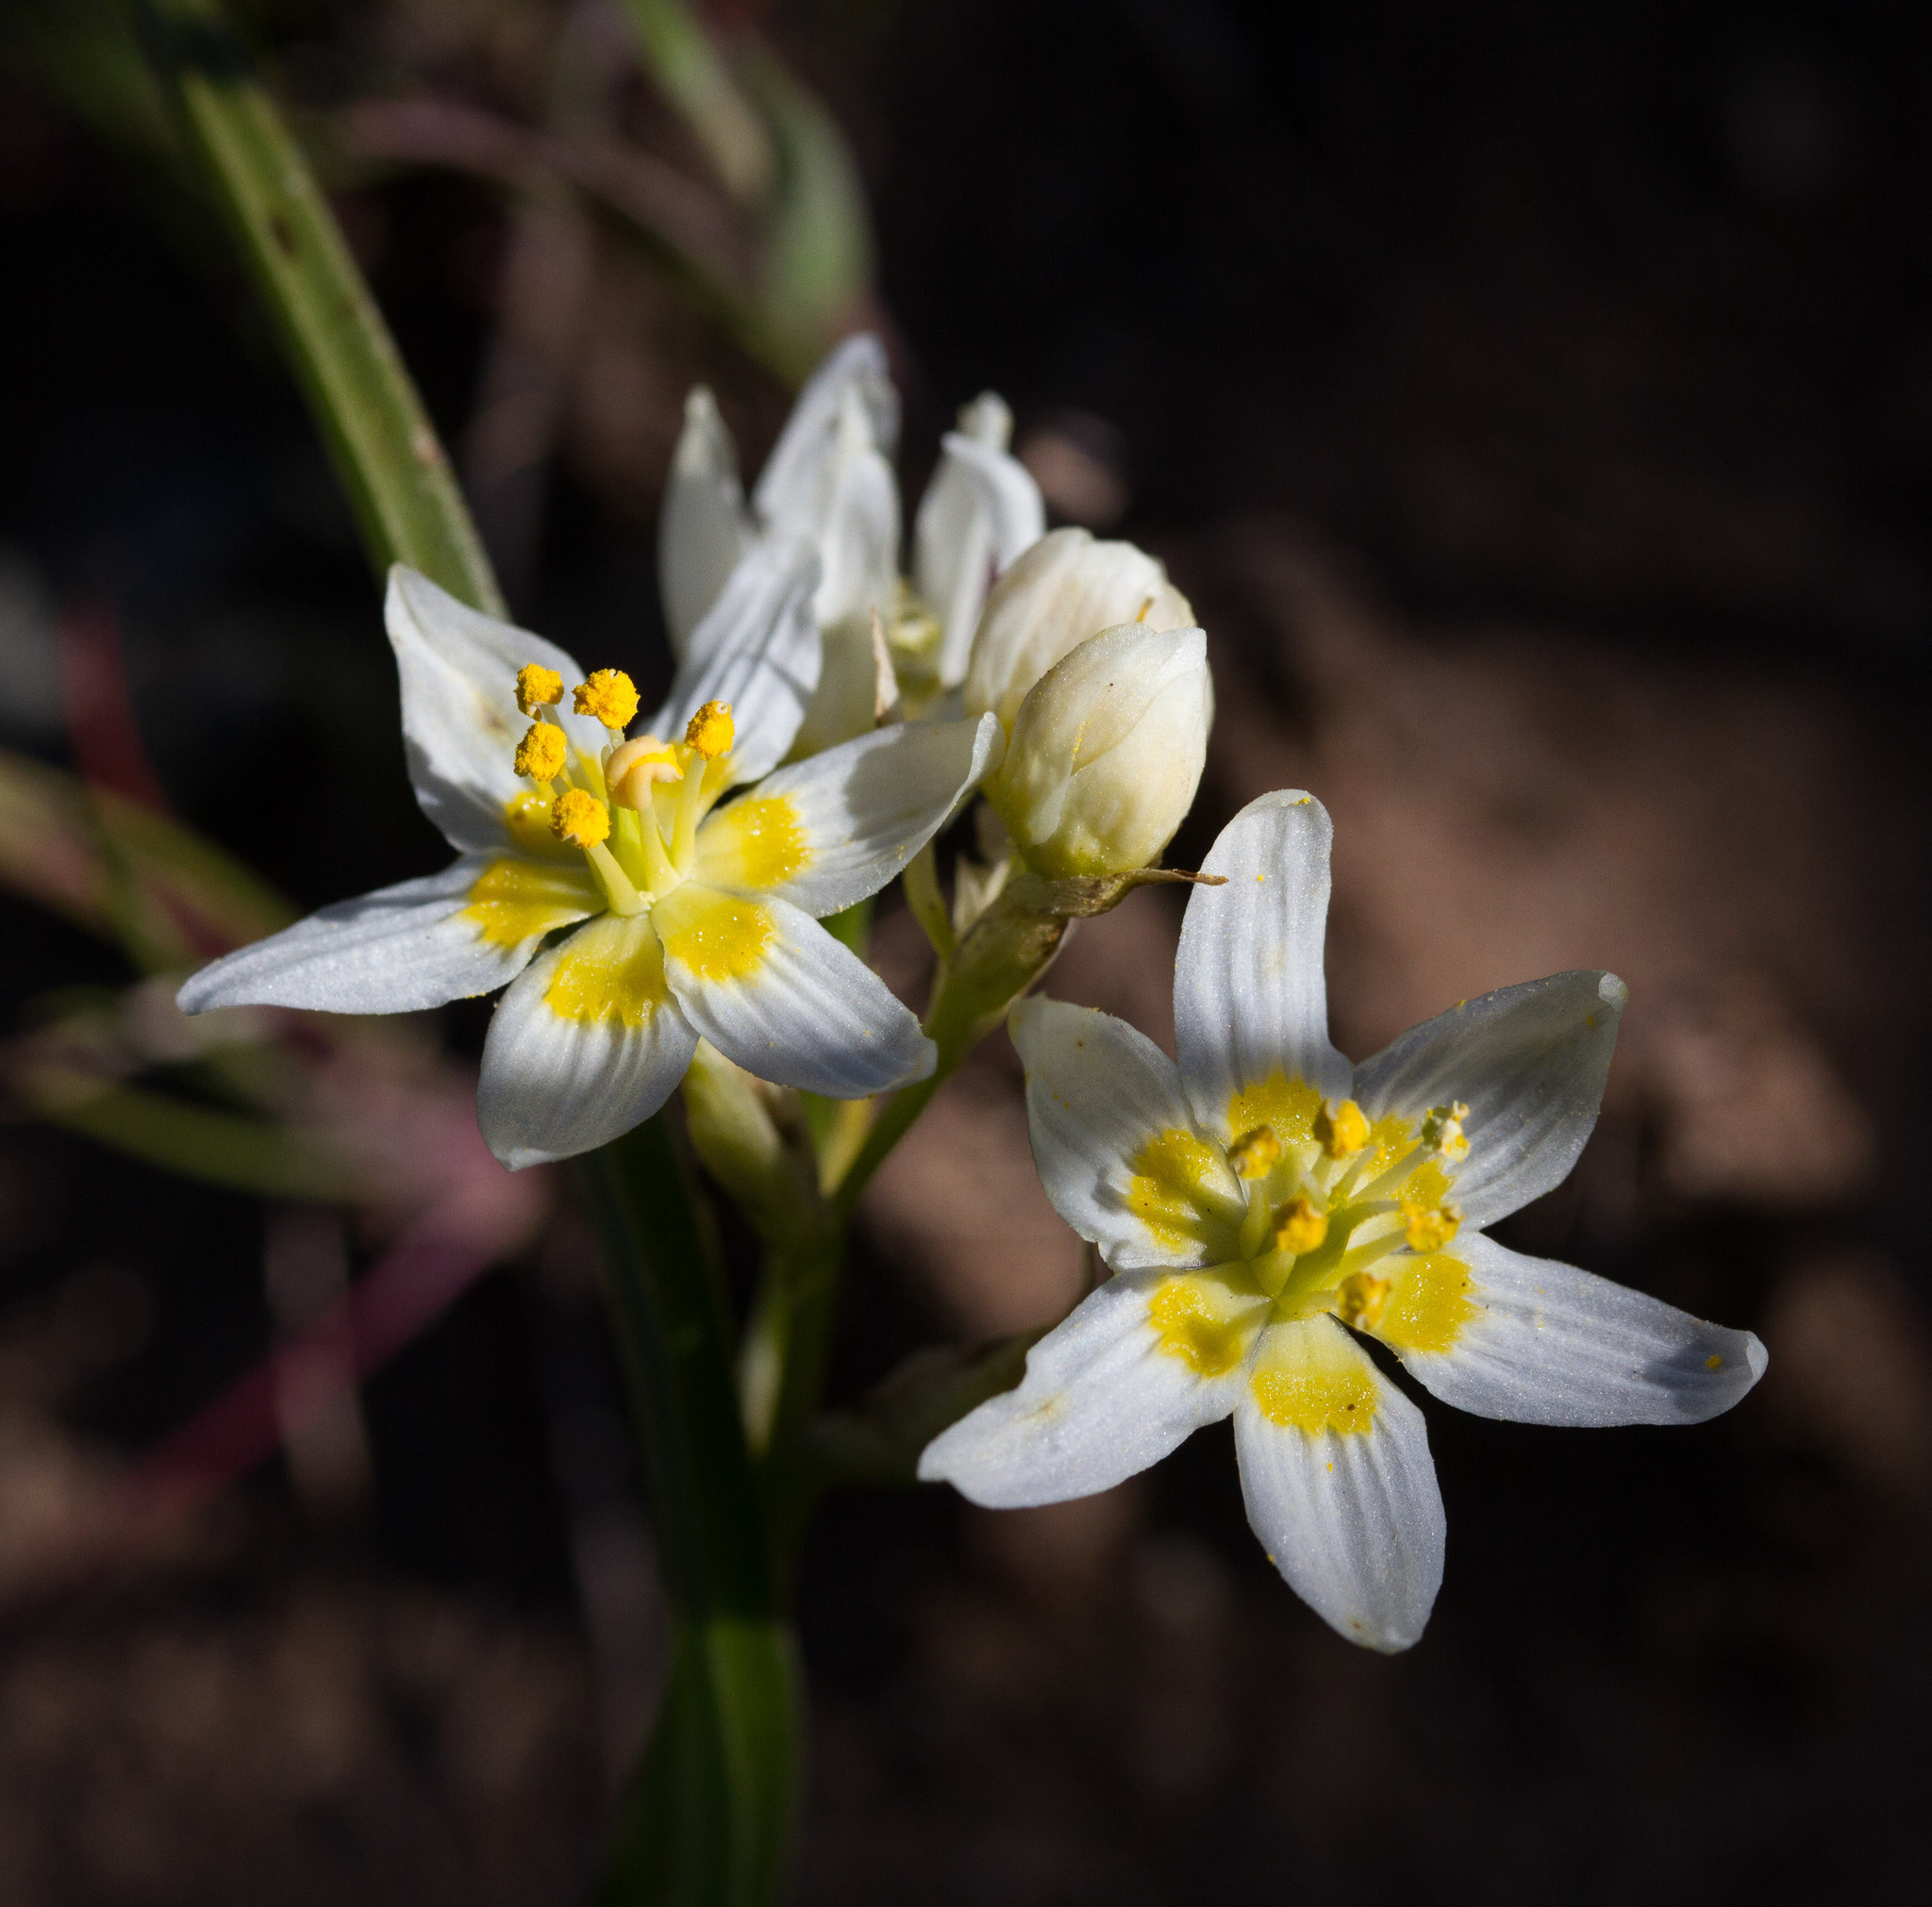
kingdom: Plantae
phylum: Tracheophyta
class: Liliopsida
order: Liliales
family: Melanthiaceae
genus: Toxicoscordion
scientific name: Toxicoscordion fremontii
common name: Fremont's death camas
